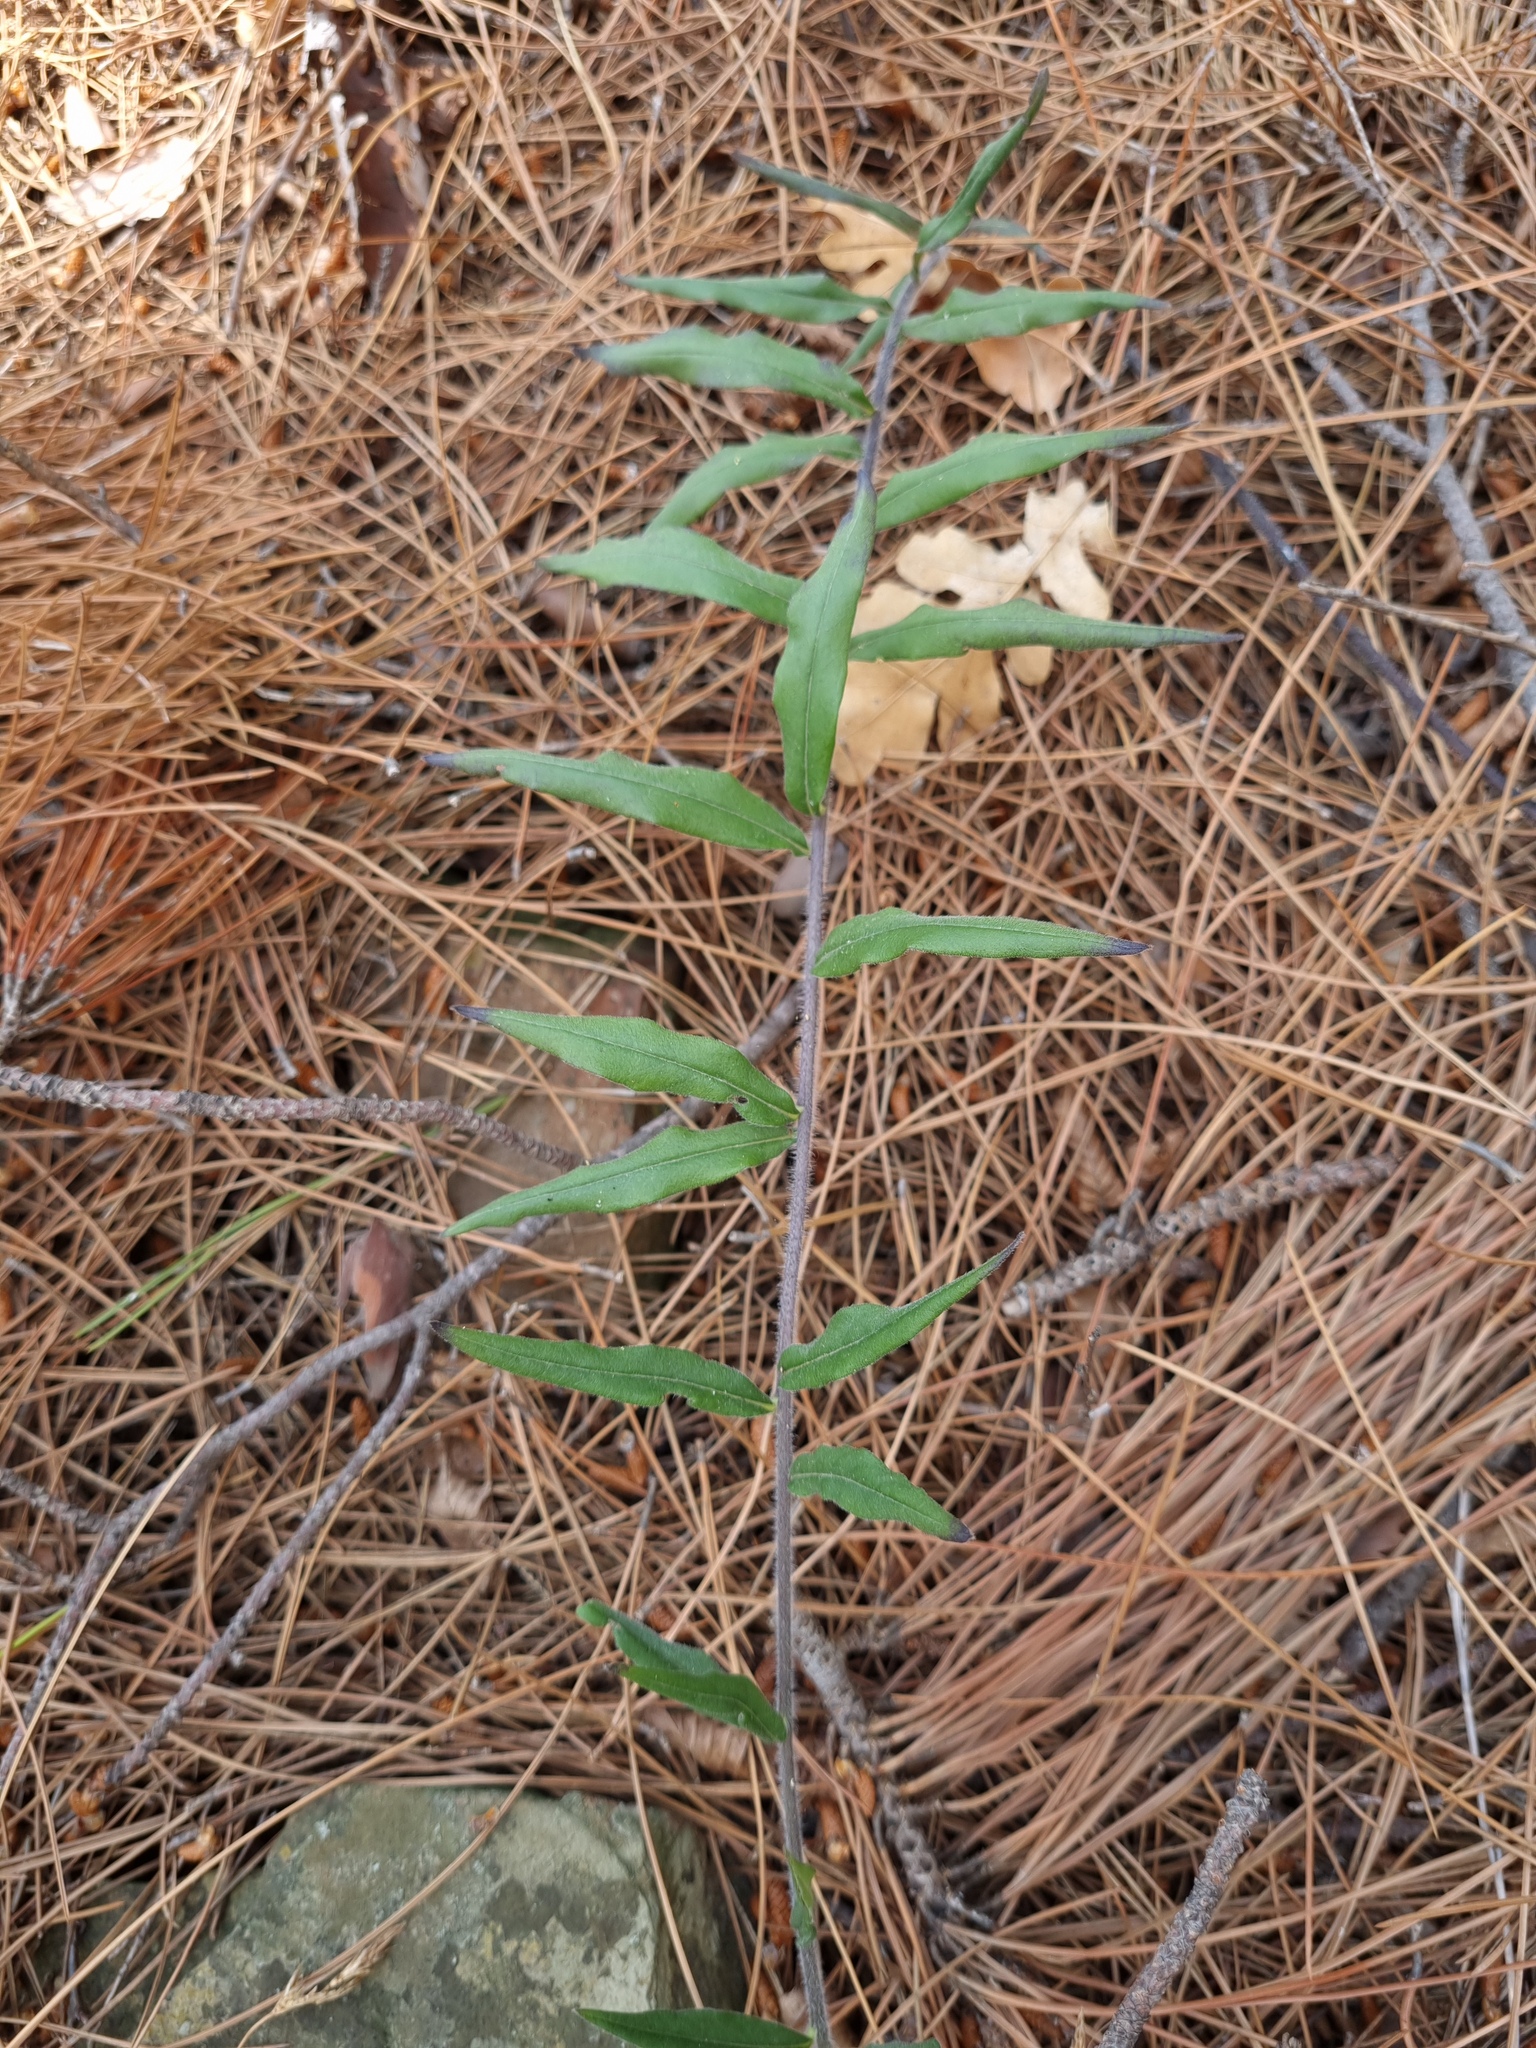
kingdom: Plantae
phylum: Tracheophyta
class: Magnoliopsida
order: Boraginales
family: Boraginaceae
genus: Aegonychon
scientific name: Aegonychon purpurocaeruleum
